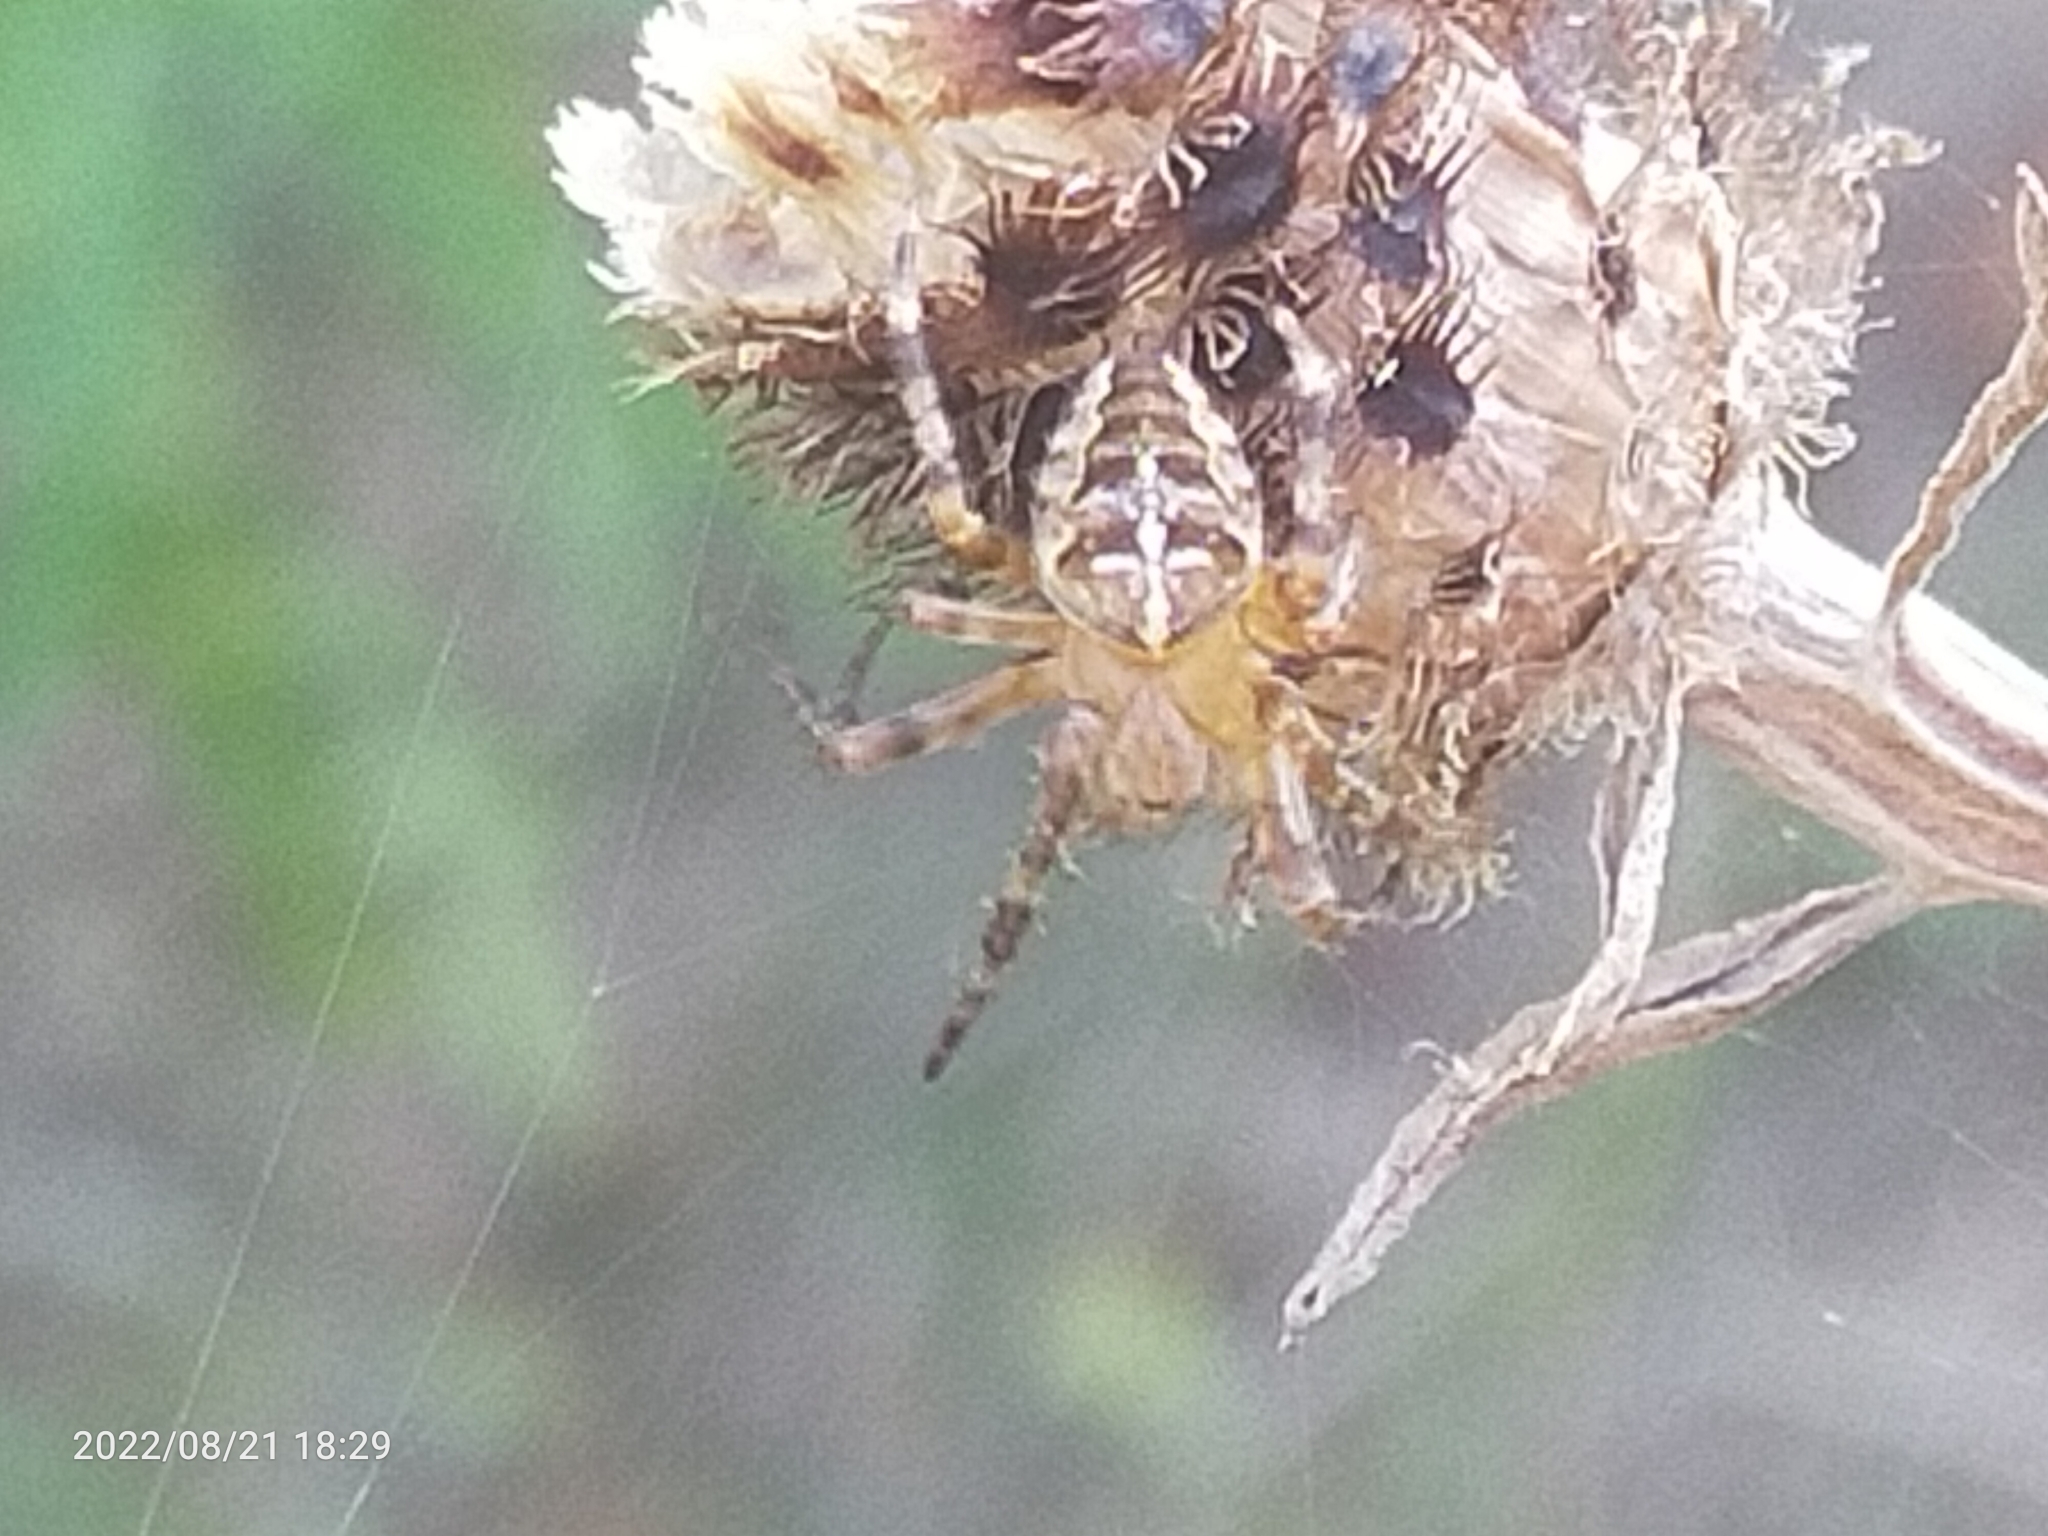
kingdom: Animalia
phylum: Arthropoda
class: Arachnida
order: Araneae
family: Araneidae
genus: Araneus
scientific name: Araneus diadematus
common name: Cross orbweaver
